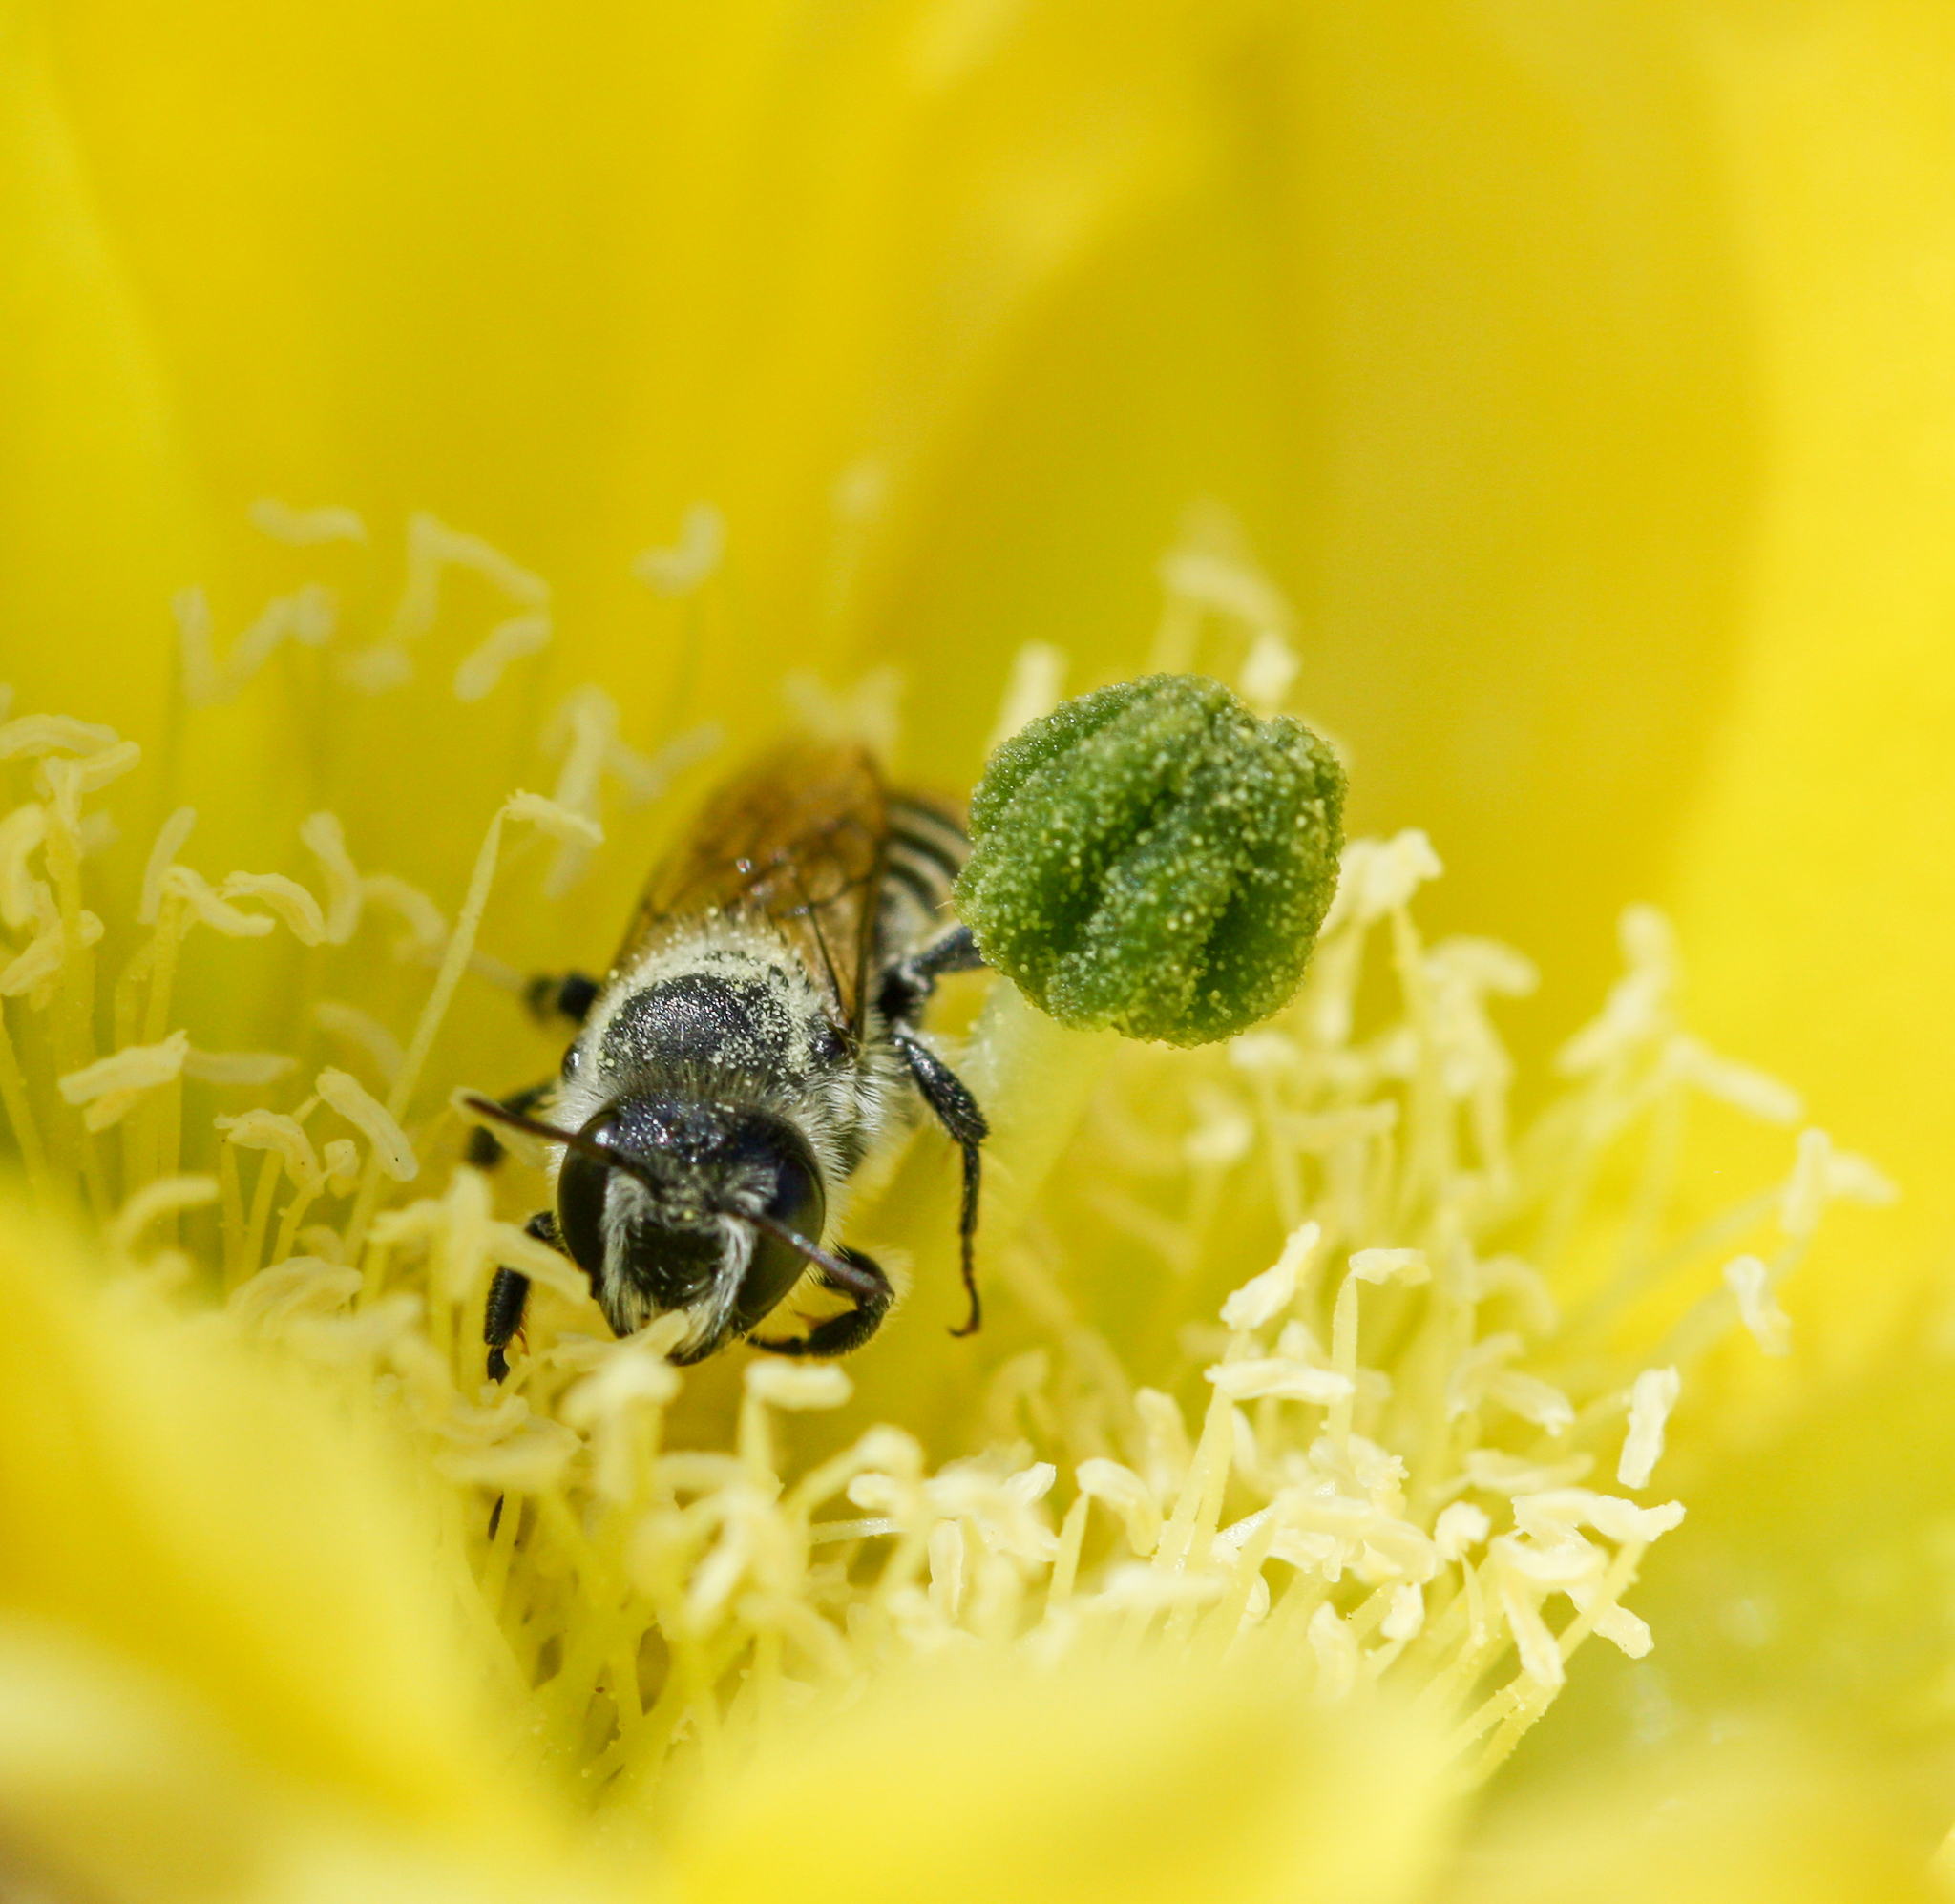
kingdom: Animalia
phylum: Arthropoda
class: Insecta
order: Hymenoptera
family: Megachilidae
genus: Lithurgopsis
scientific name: Lithurgopsis apicalis
